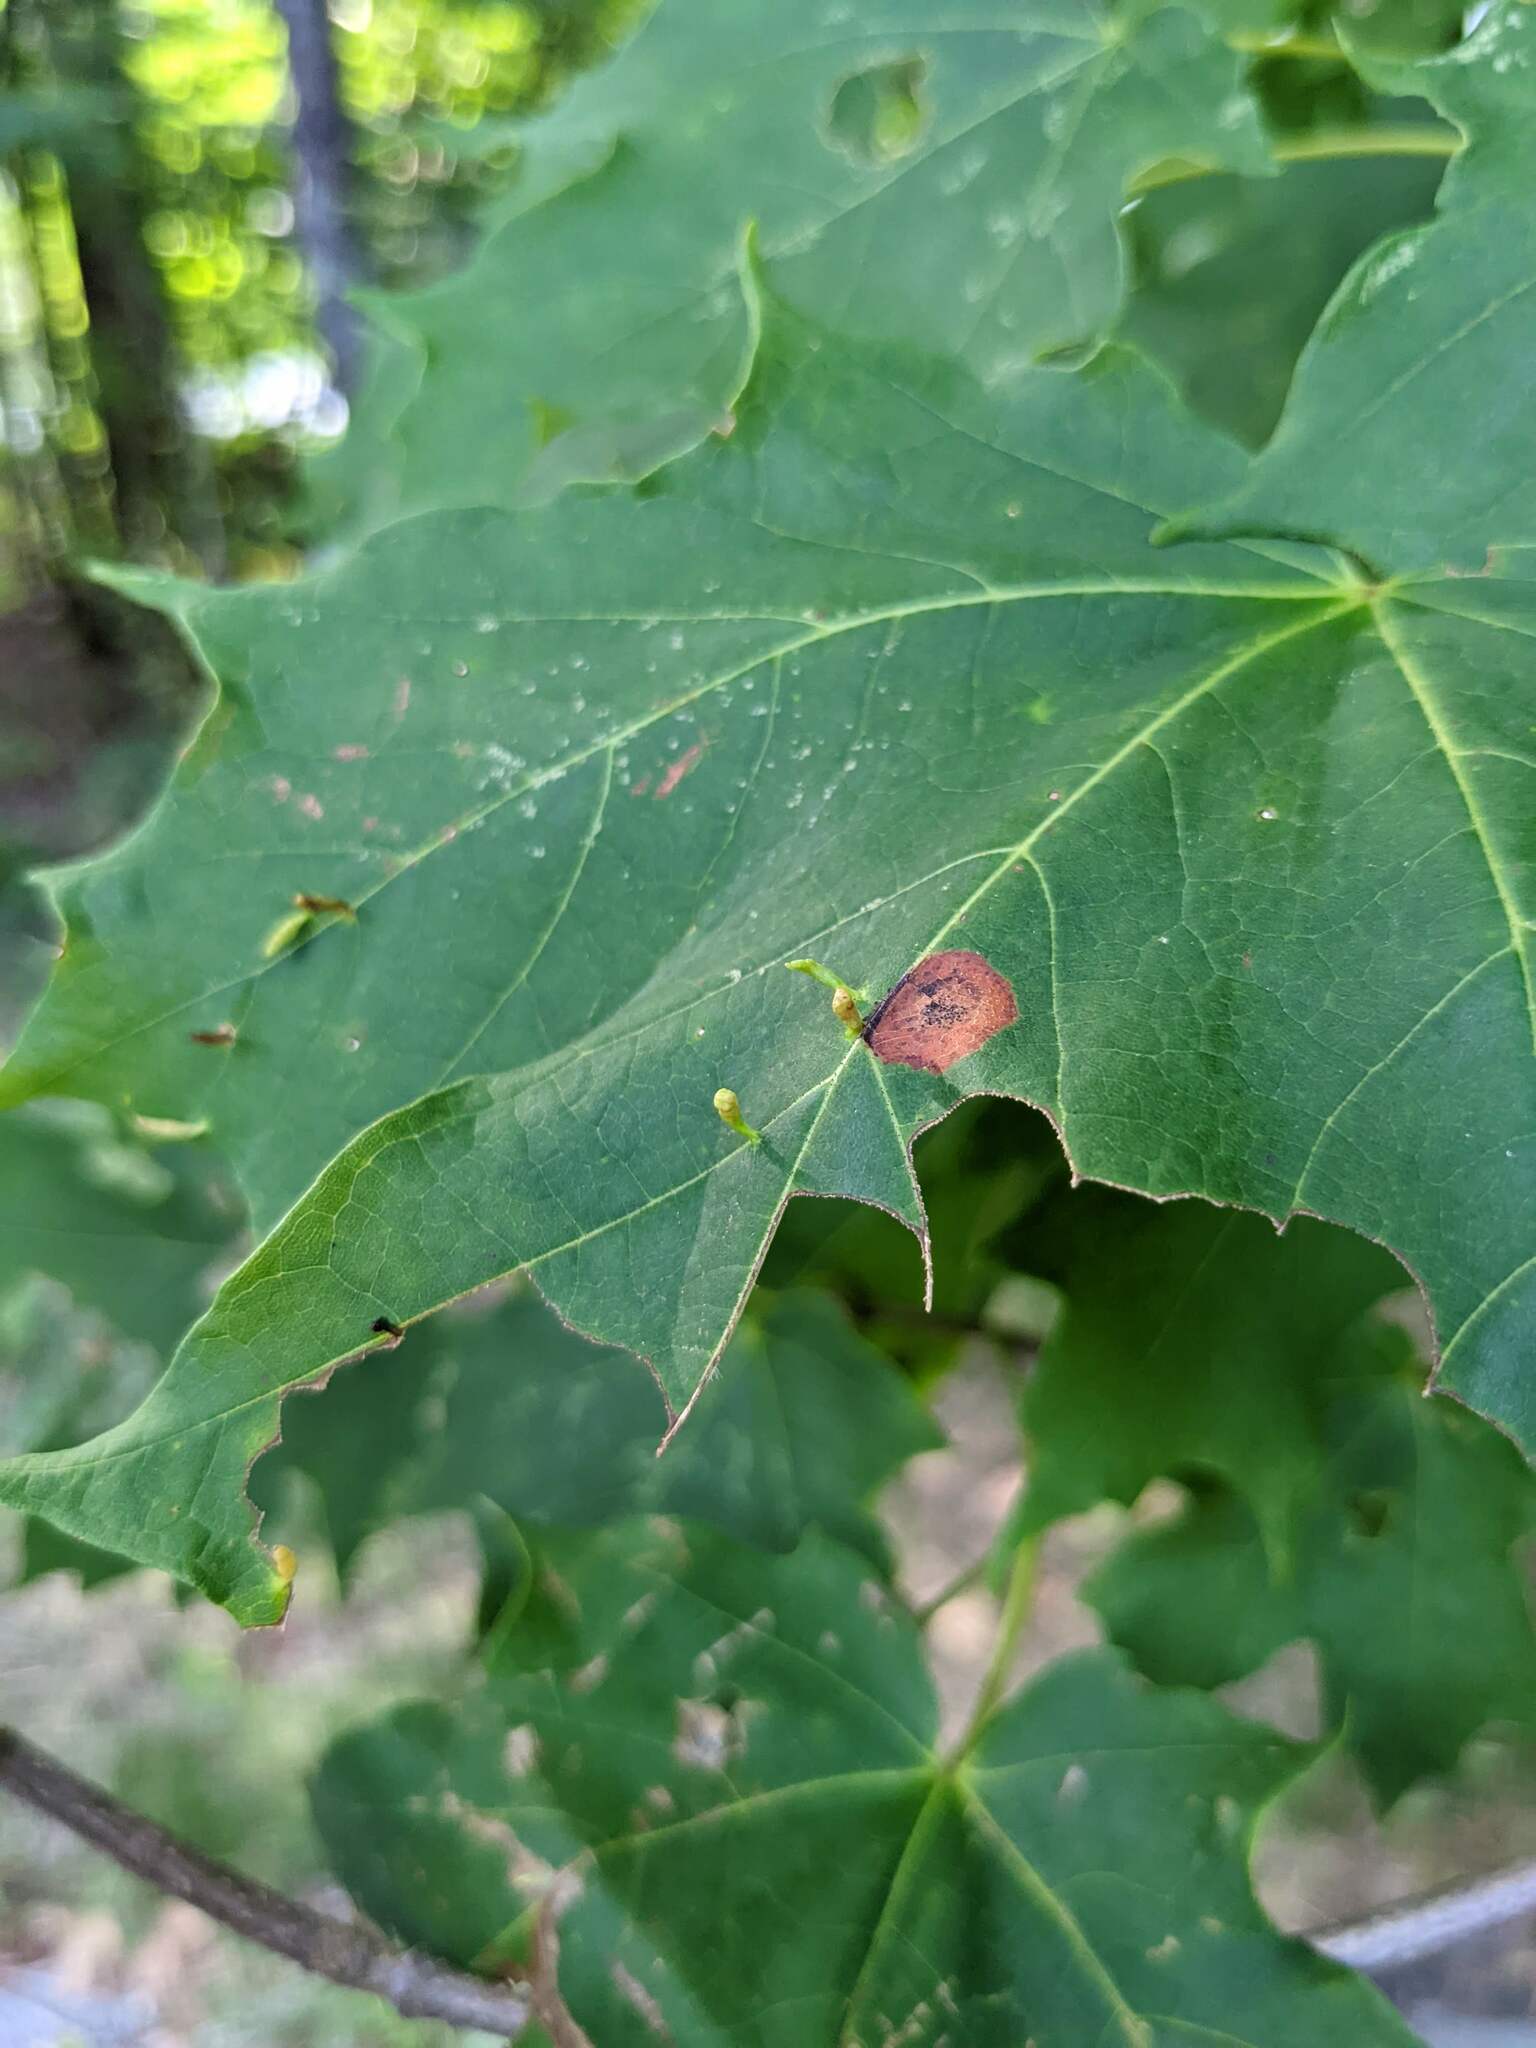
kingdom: Animalia
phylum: Arthropoda
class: Arachnida
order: Trombidiformes
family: Eriophyidae
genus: Vasates
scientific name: Vasates aceriscrumena
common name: Maple spindle gall mite
